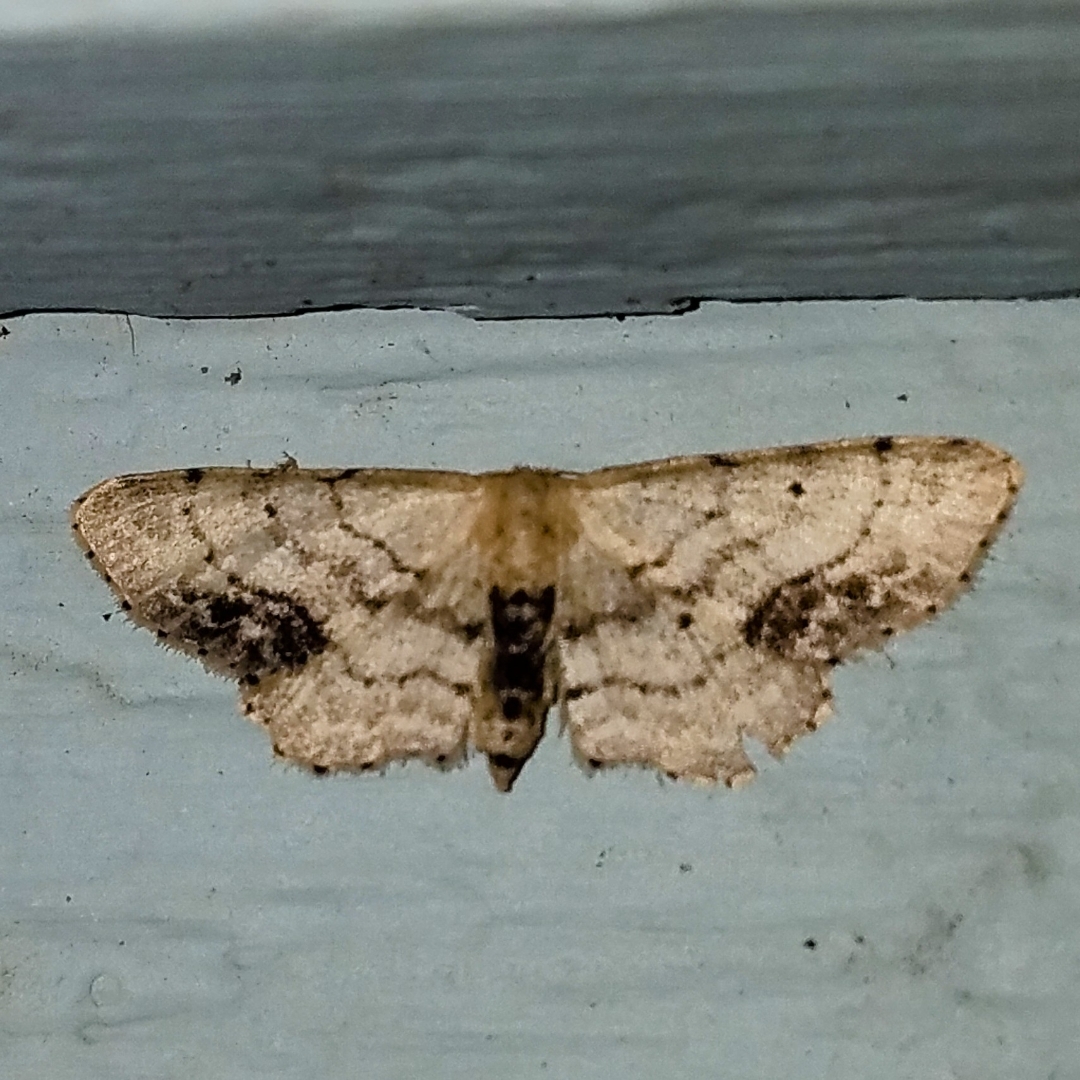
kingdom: Animalia
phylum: Arthropoda
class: Insecta
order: Lepidoptera
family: Geometridae
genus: Idaea
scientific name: Idaea dimidiata
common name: Single-dotted wave
